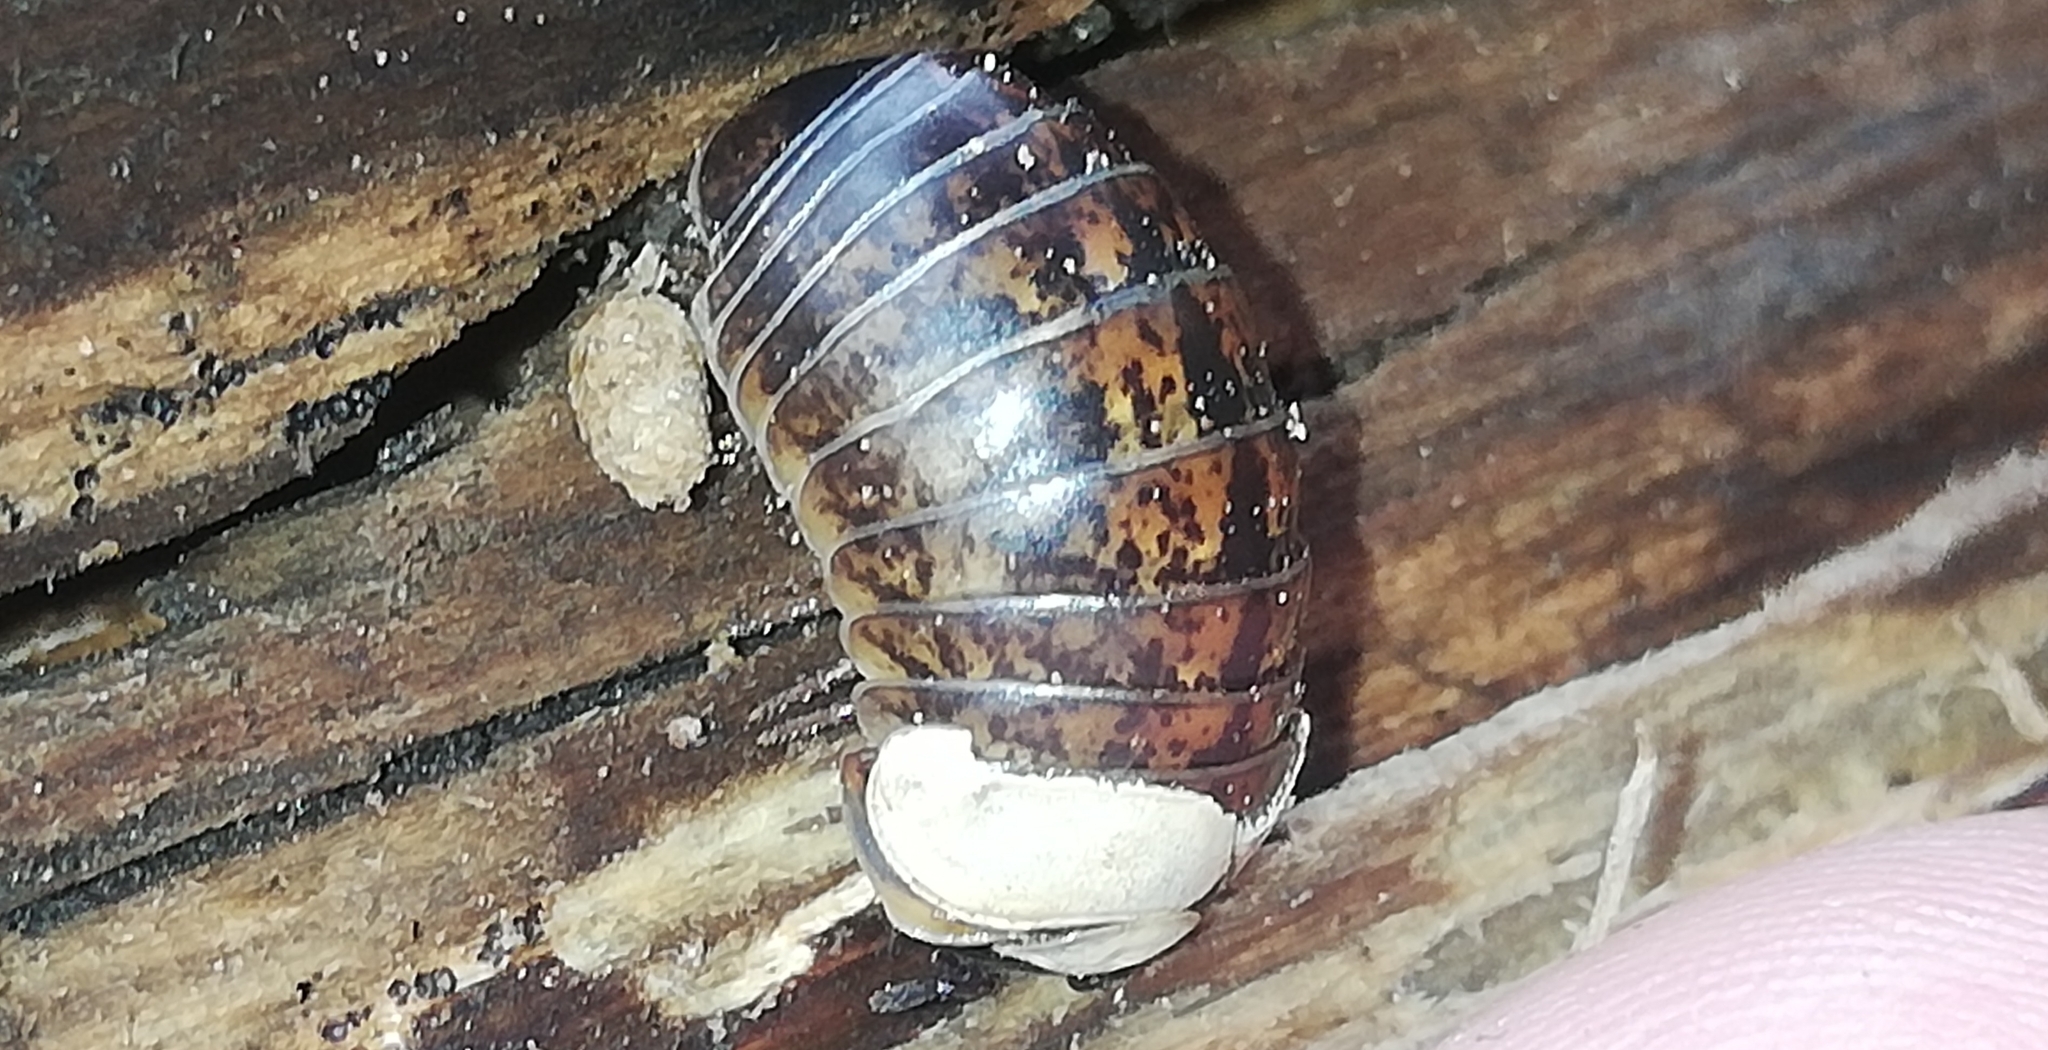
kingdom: Animalia
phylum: Arthropoda
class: Diplopoda
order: Glomerida
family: Glomeridae
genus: Glomeris
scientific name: Glomeris klugii
